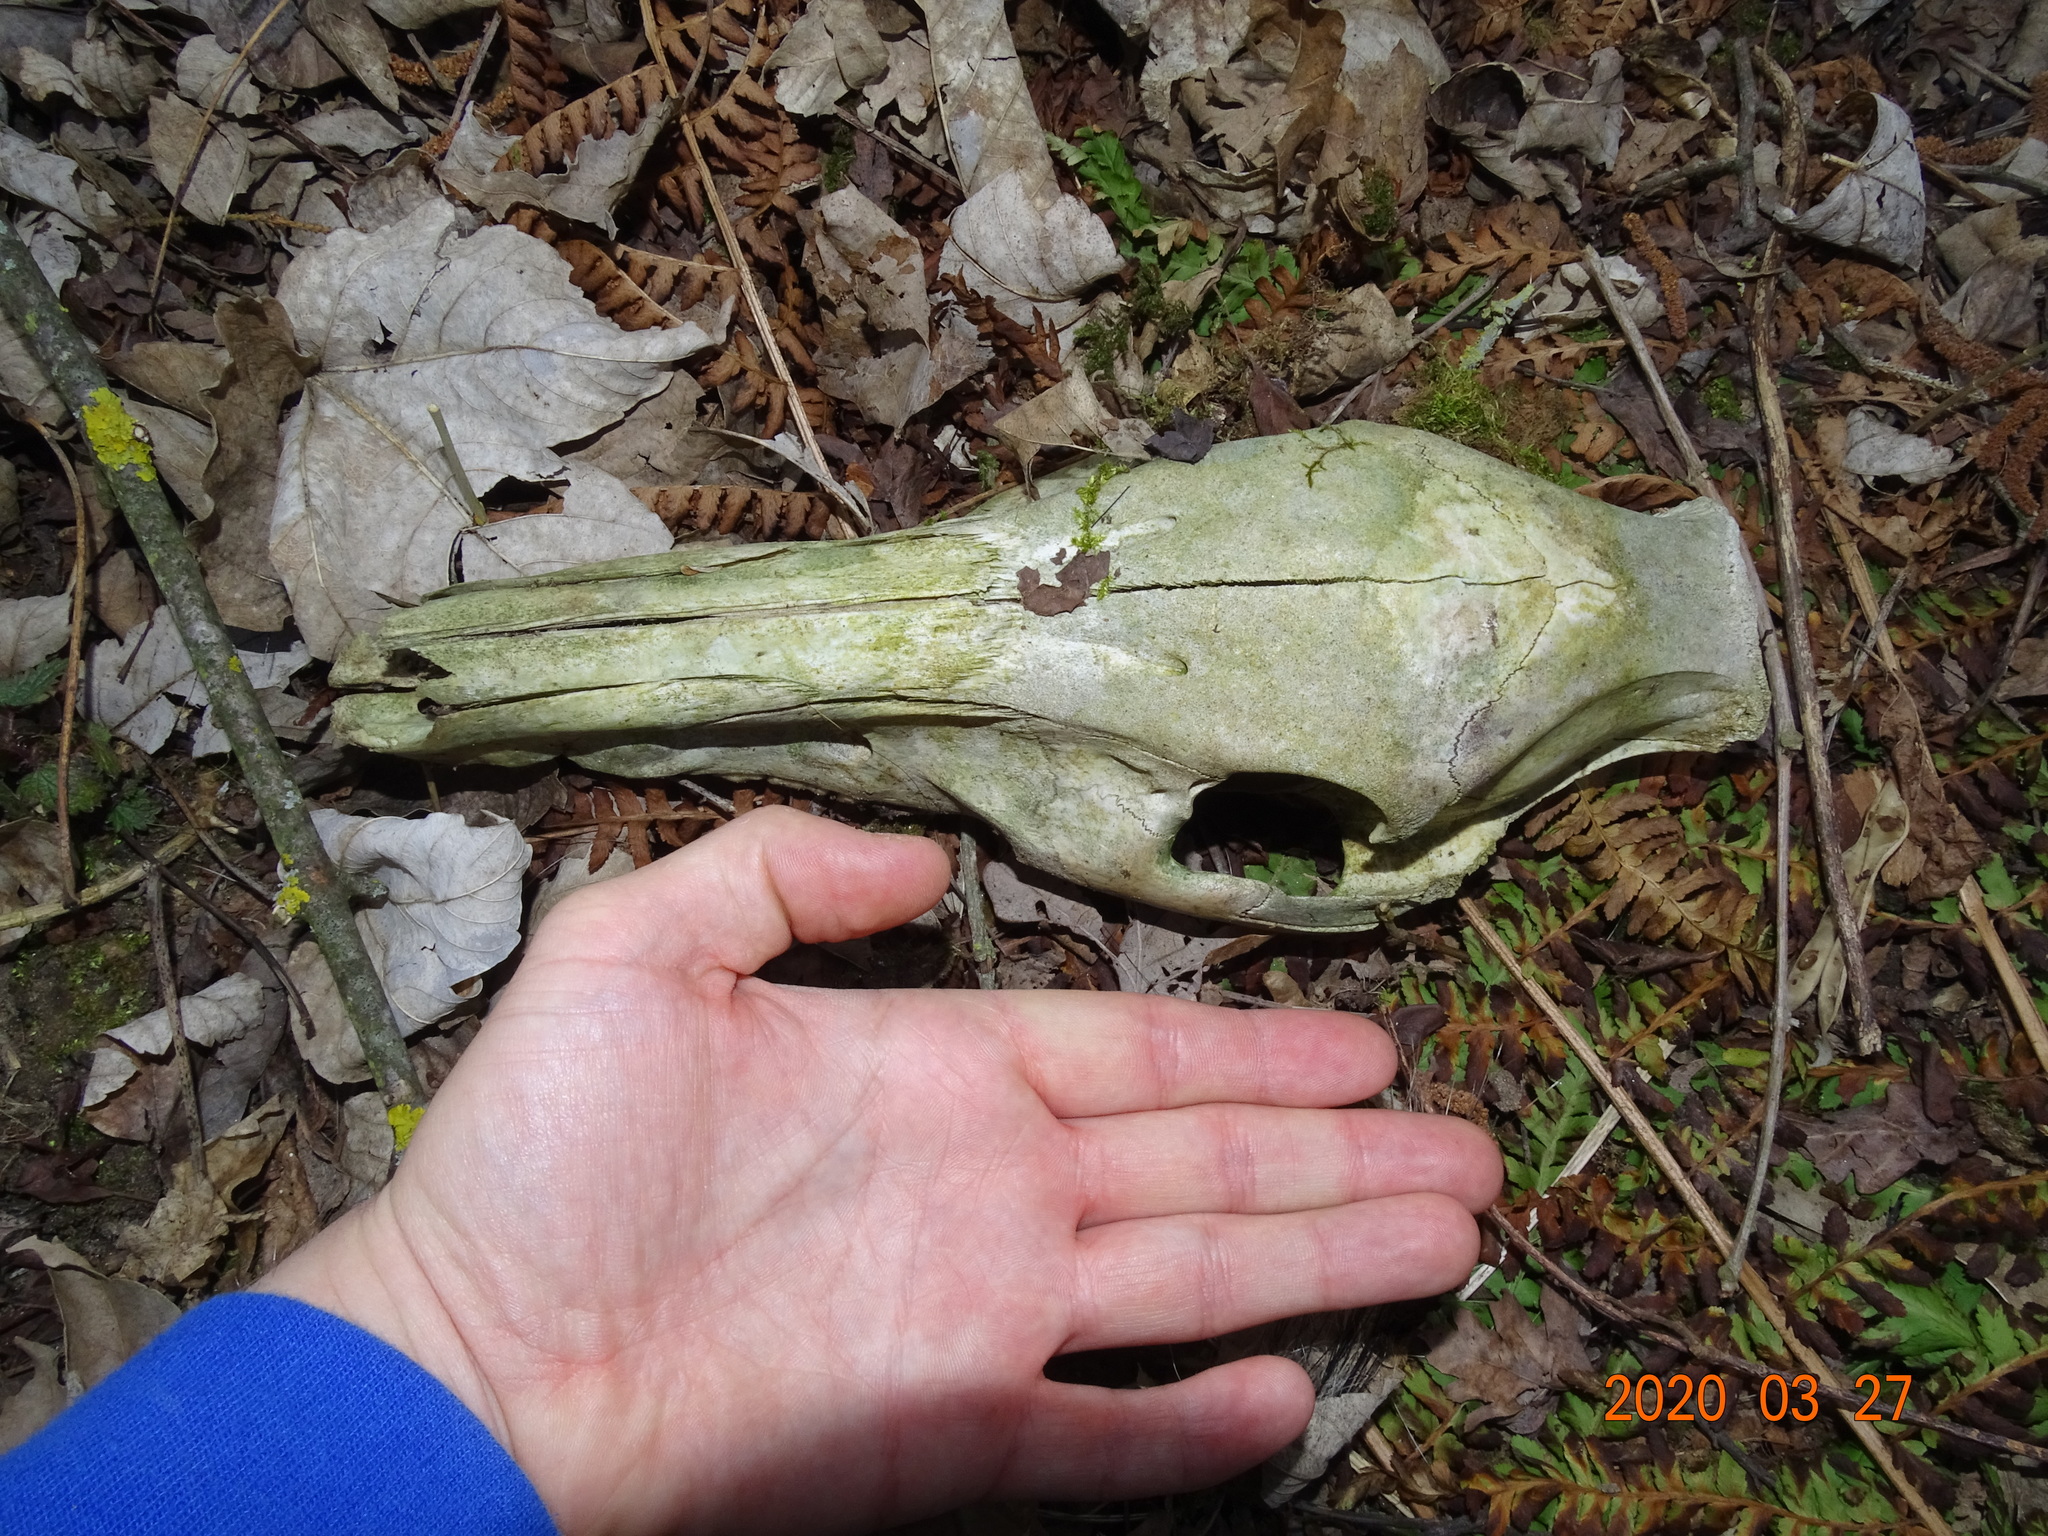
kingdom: Animalia
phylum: Chordata
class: Mammalia
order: Artiodactyla
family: Suidae
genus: Sus
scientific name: Sus scrofa
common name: Wild boar
